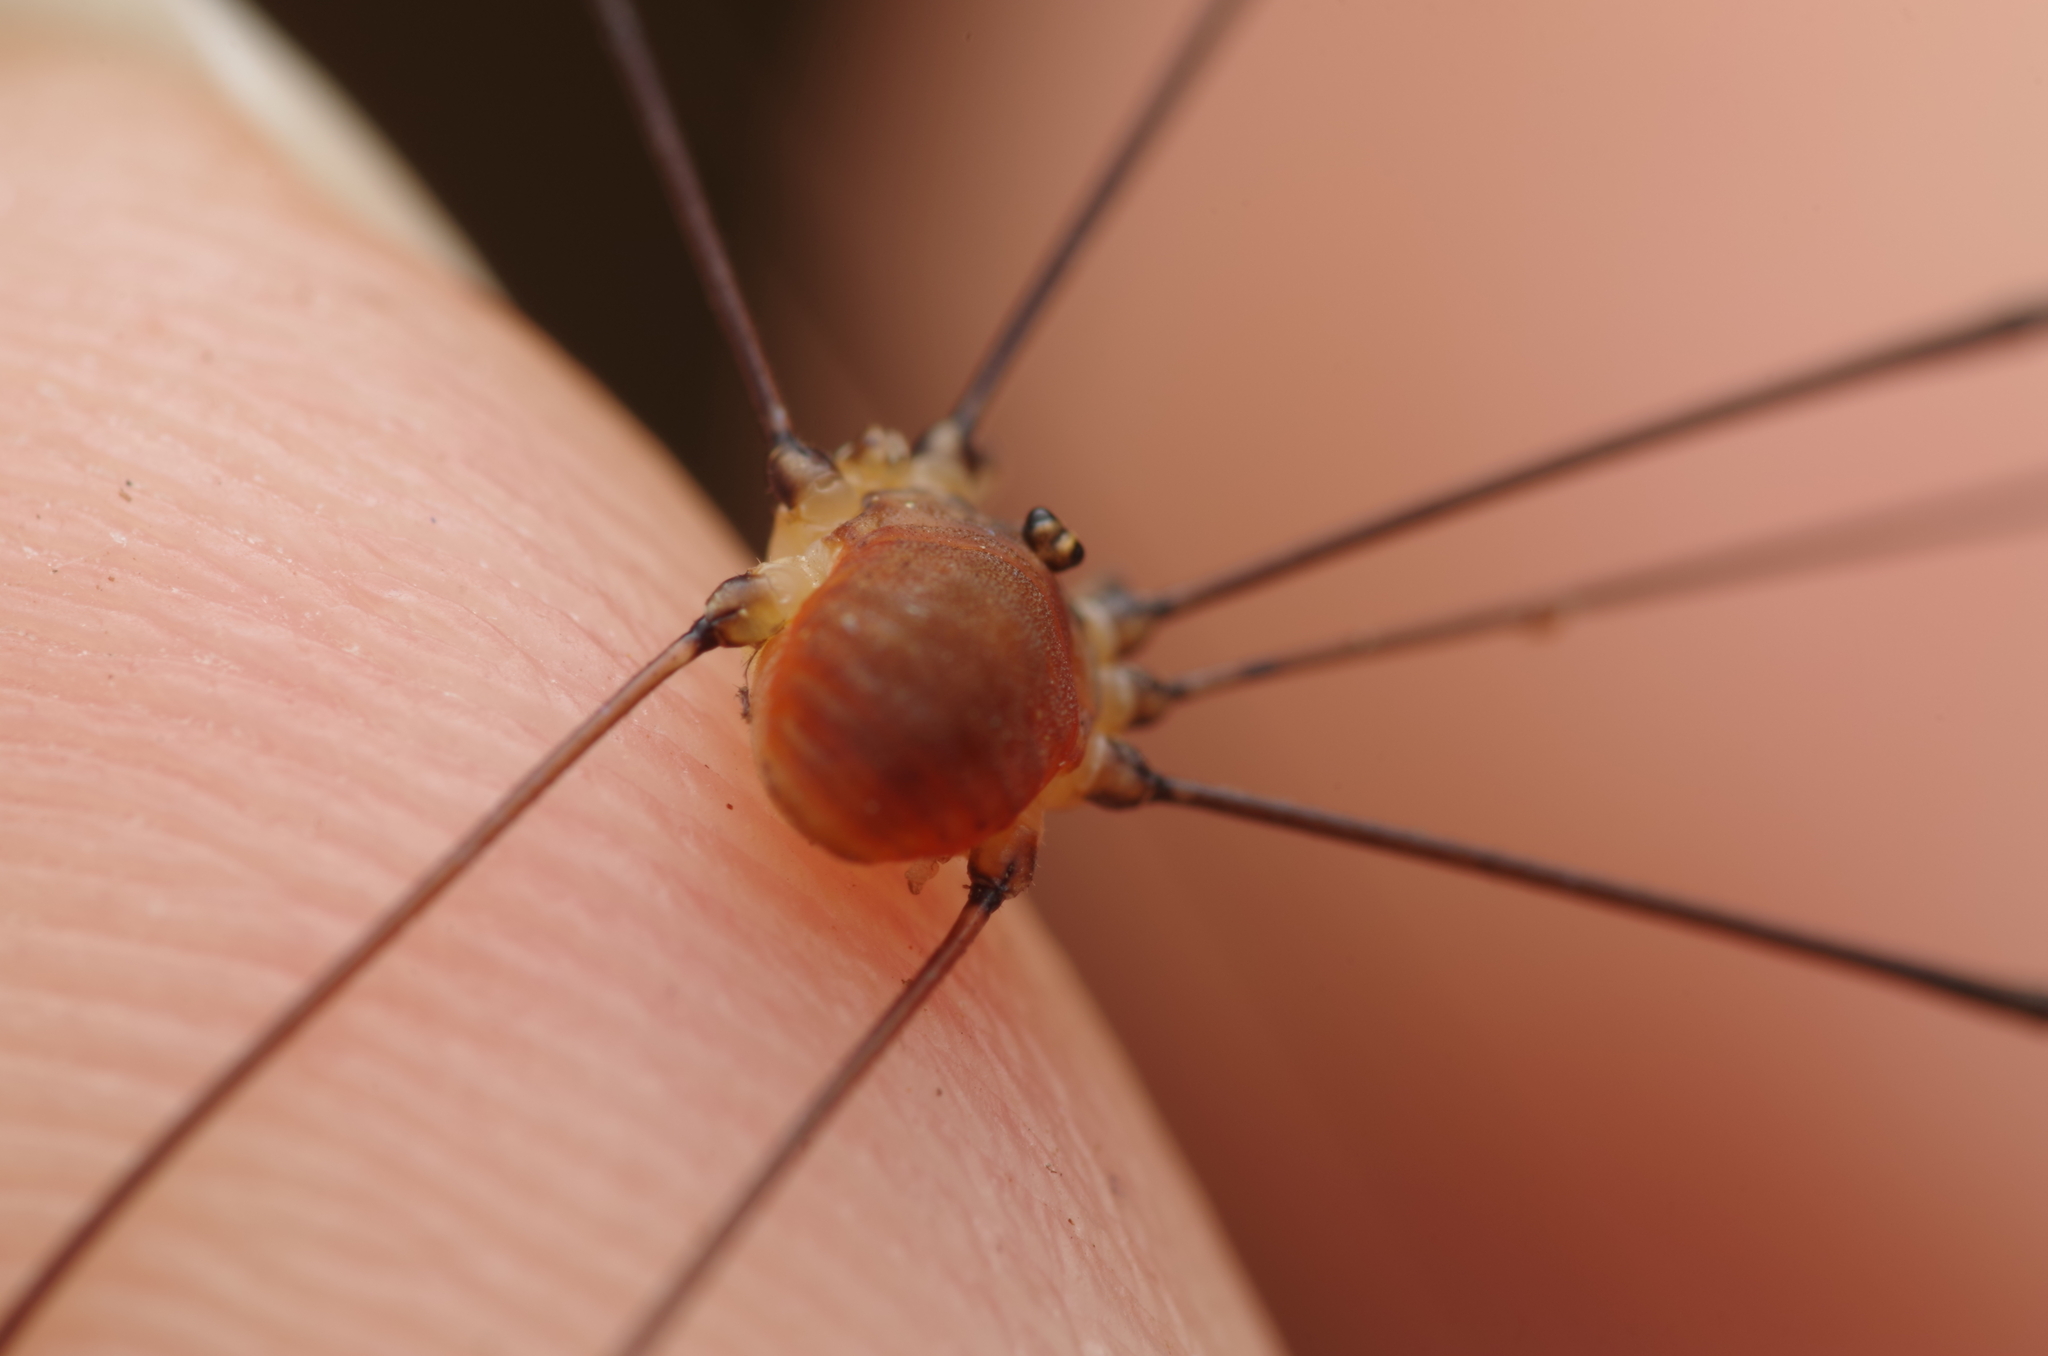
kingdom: Animalia
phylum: Arthropoda
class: Arachnida
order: Opiliones
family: Sclerosomatidae
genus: Leiobunum
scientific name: Leiobunum blackwalli
